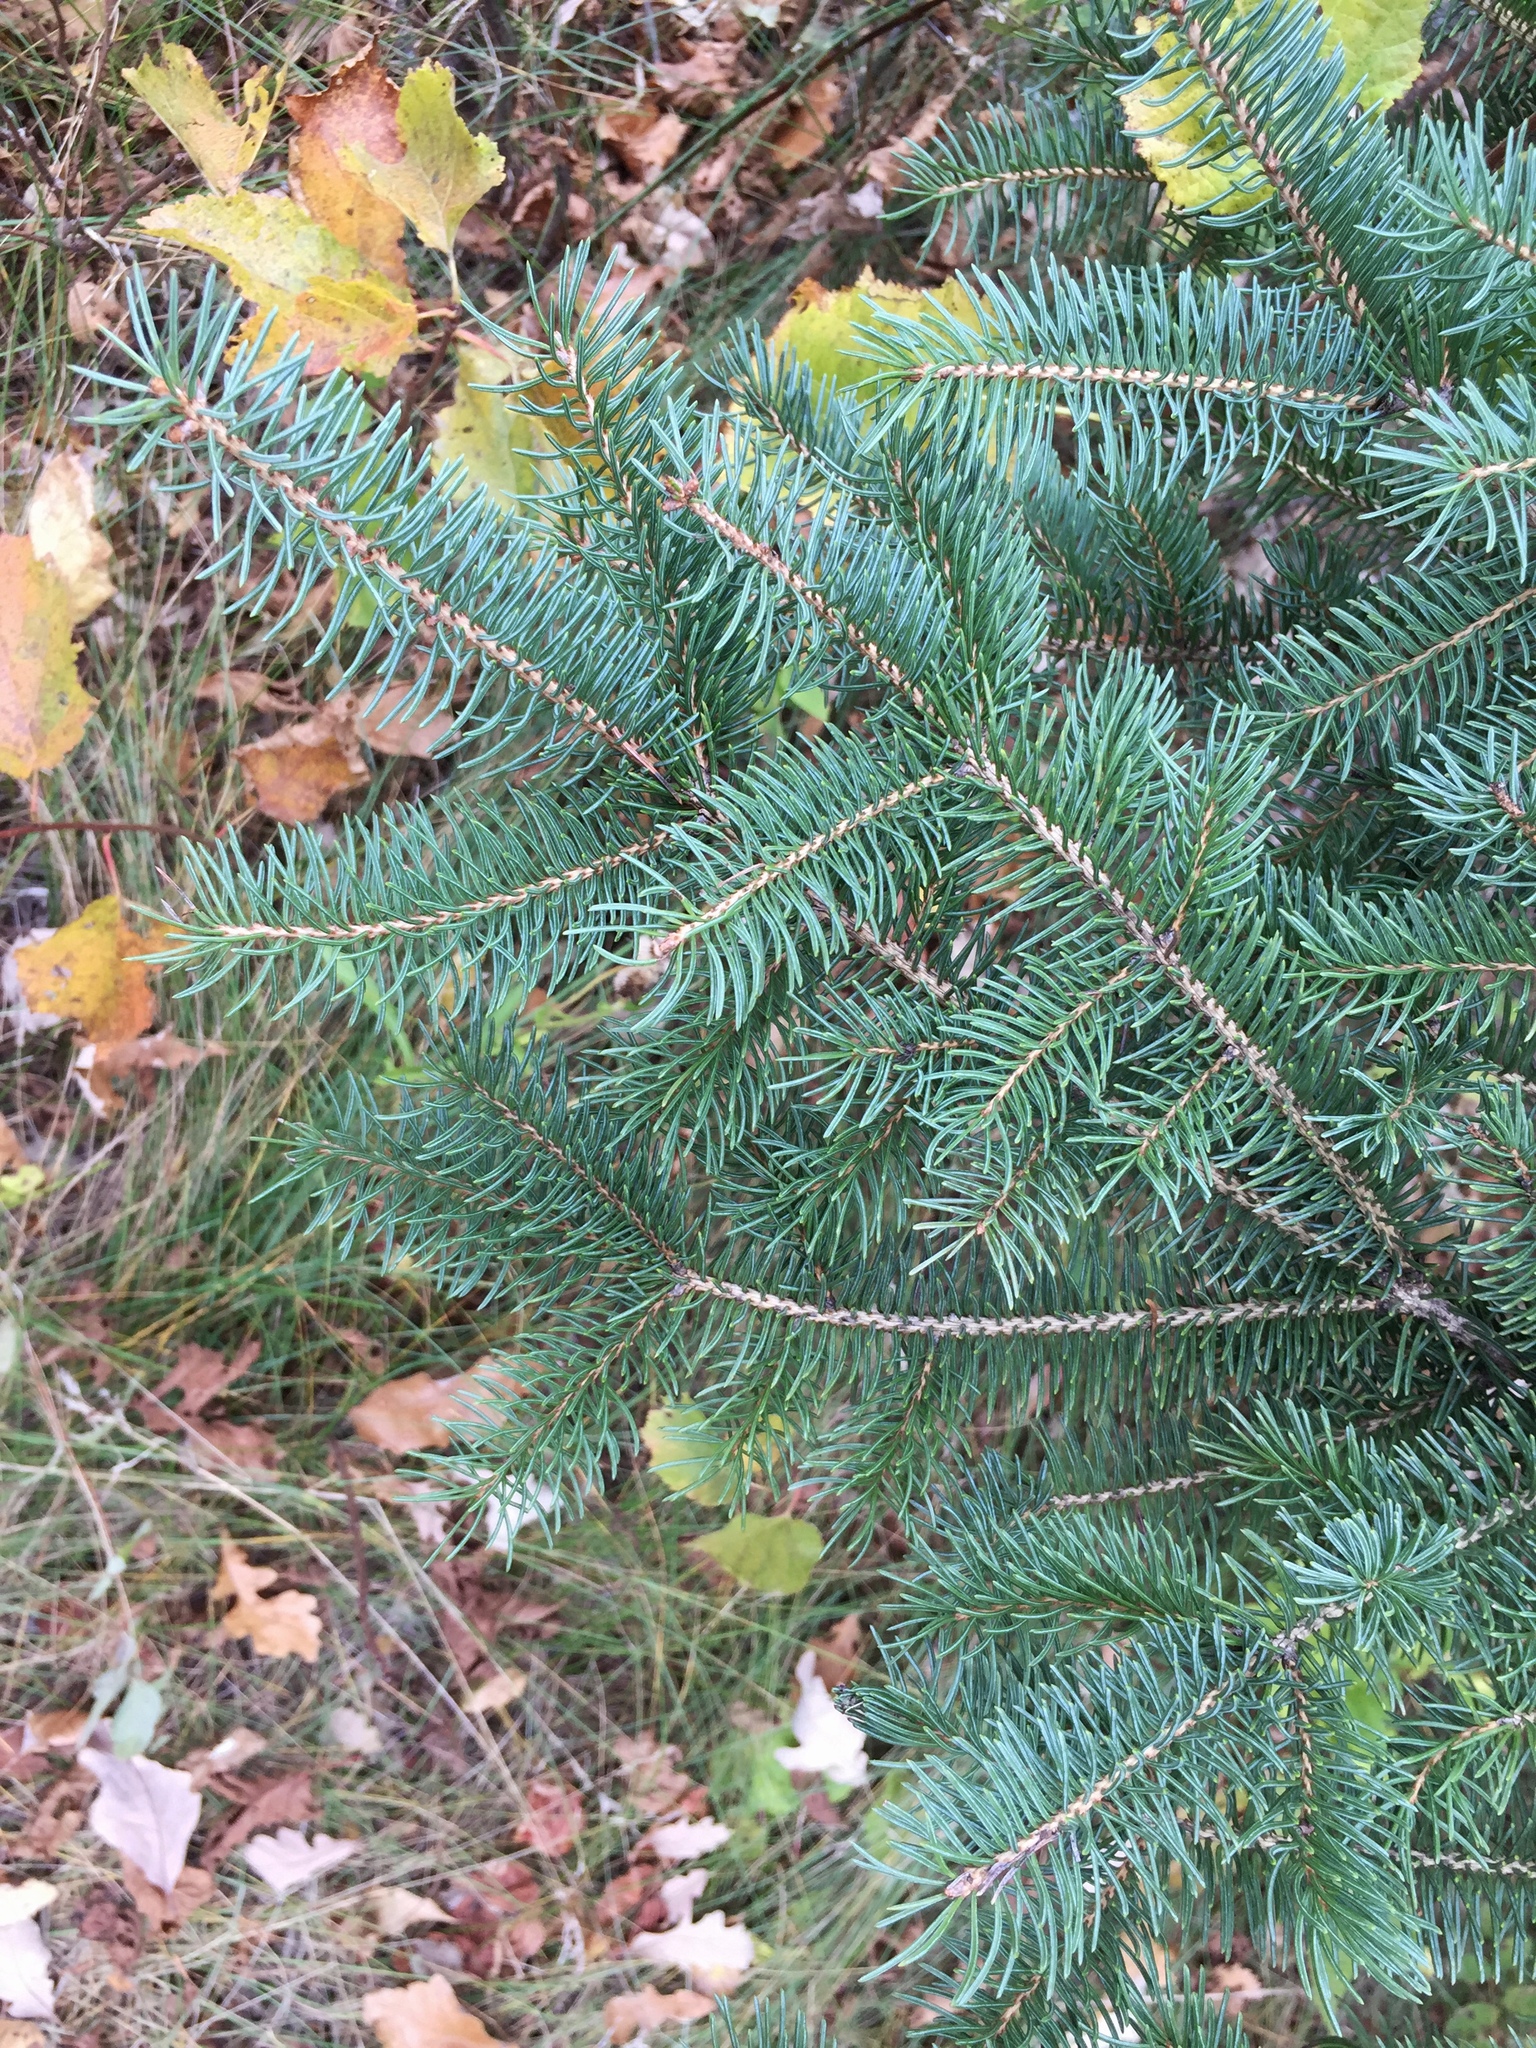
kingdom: Plantae
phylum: Tracheophyta
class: Pinopsida
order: Pinales
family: Pinaceae
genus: Picea
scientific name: Picea glauca
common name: White spruce
